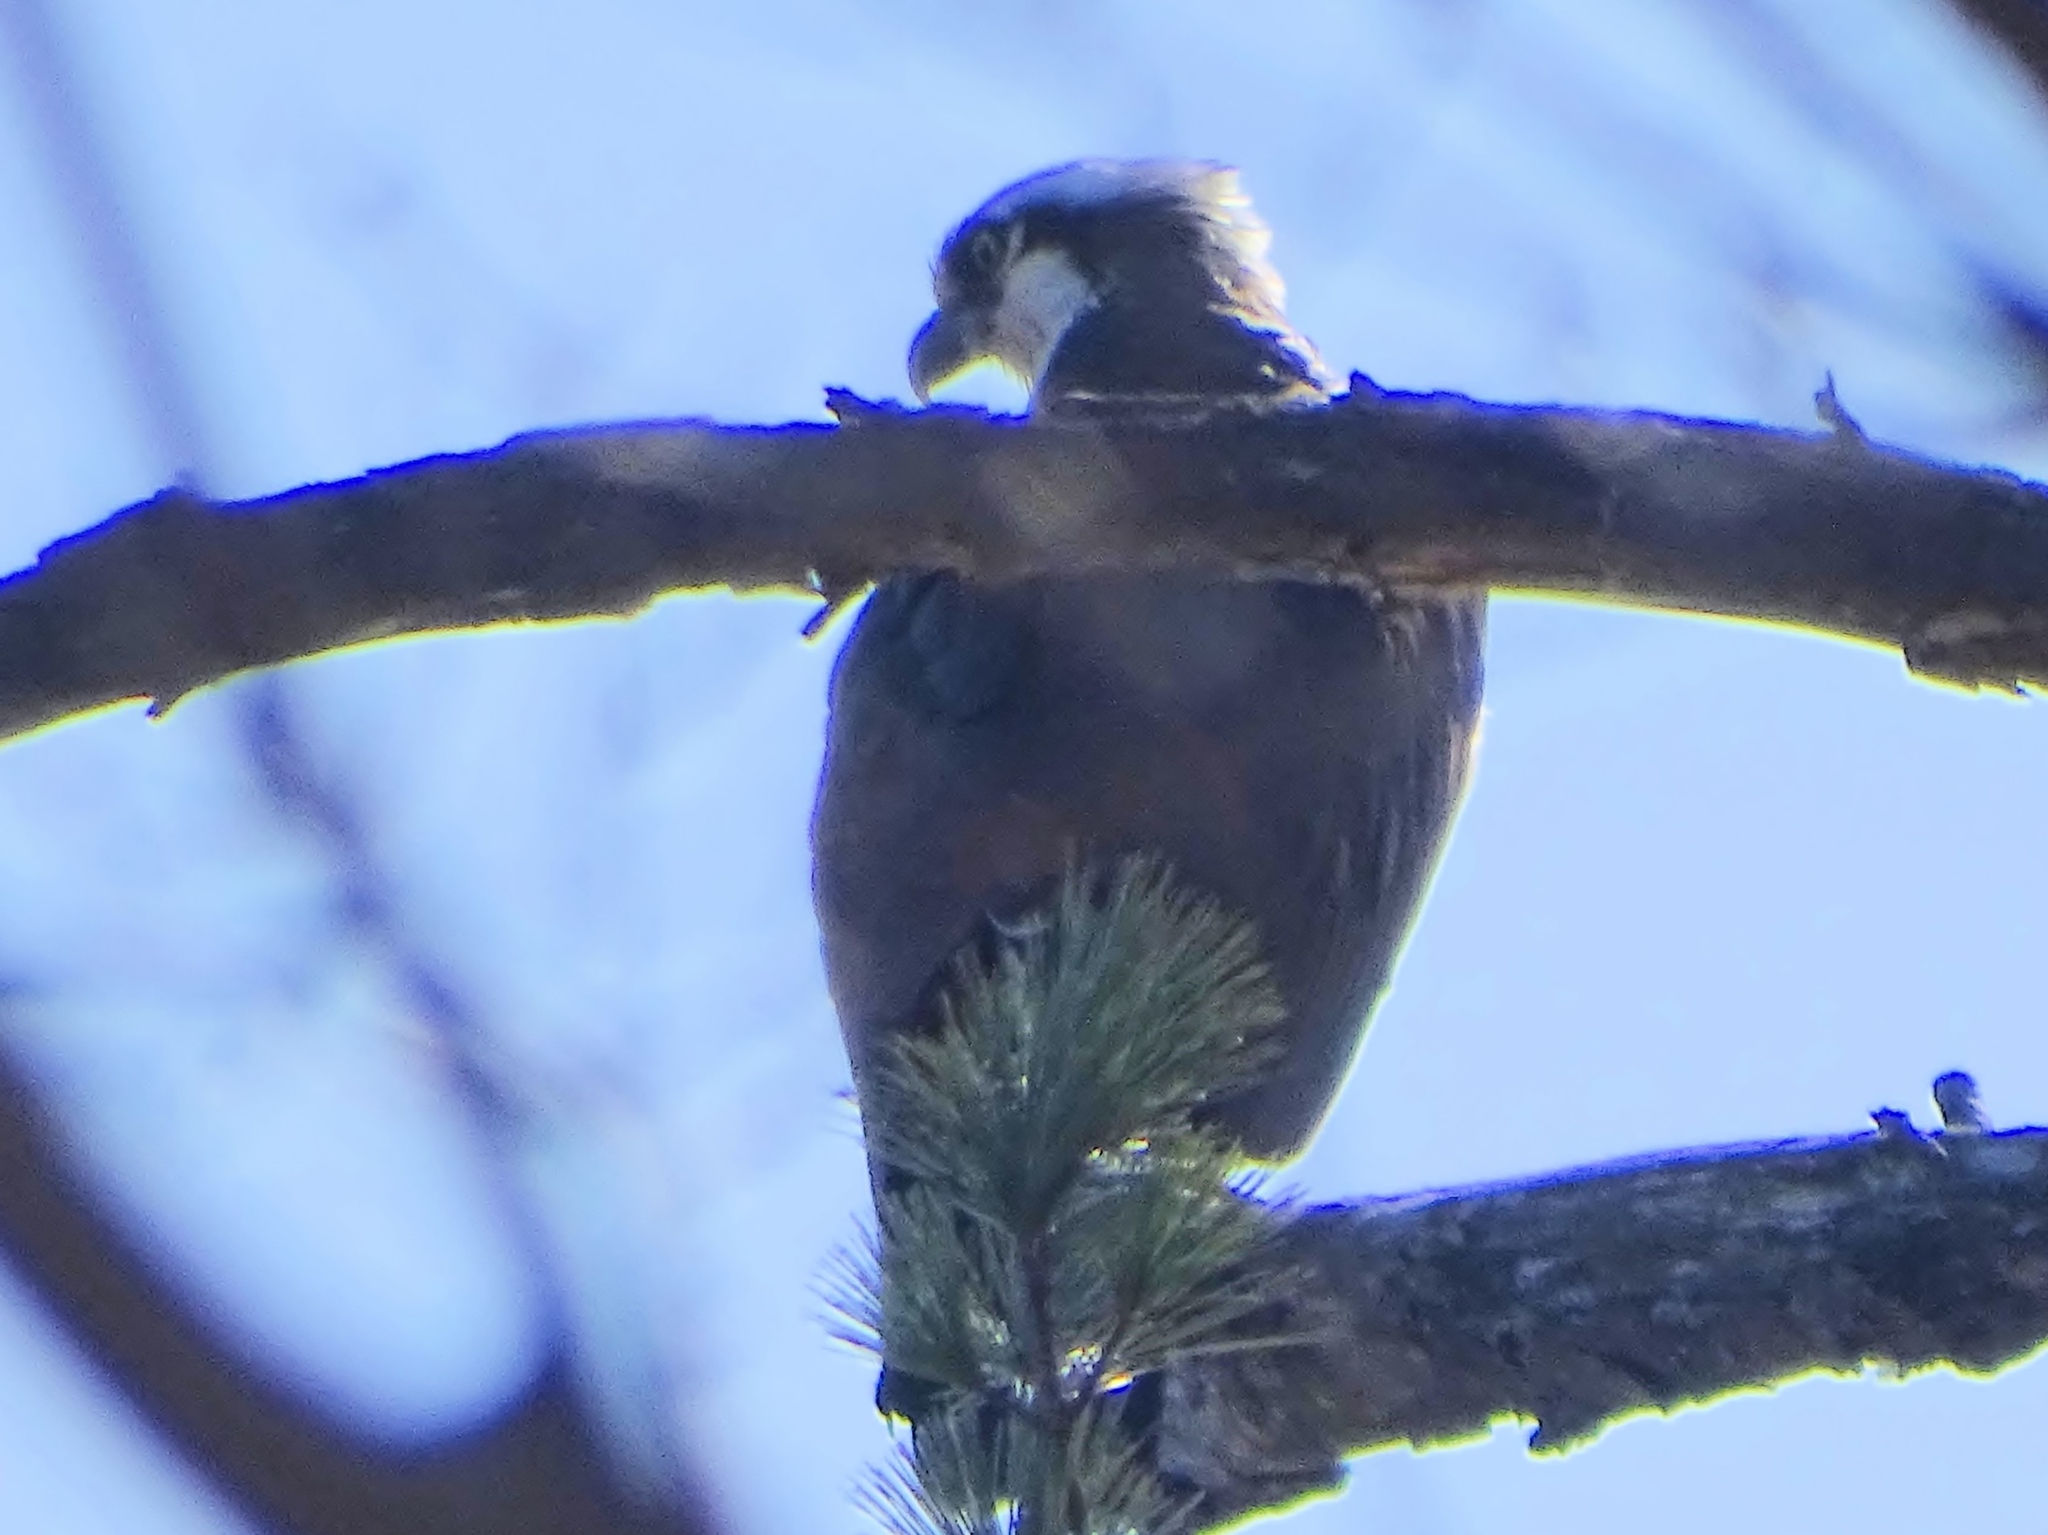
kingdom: Animalia
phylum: Chordata
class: Aves
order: Accipitriformes
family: Pandionidae
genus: Pandion
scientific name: Pandion haliaetus
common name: Osprey
